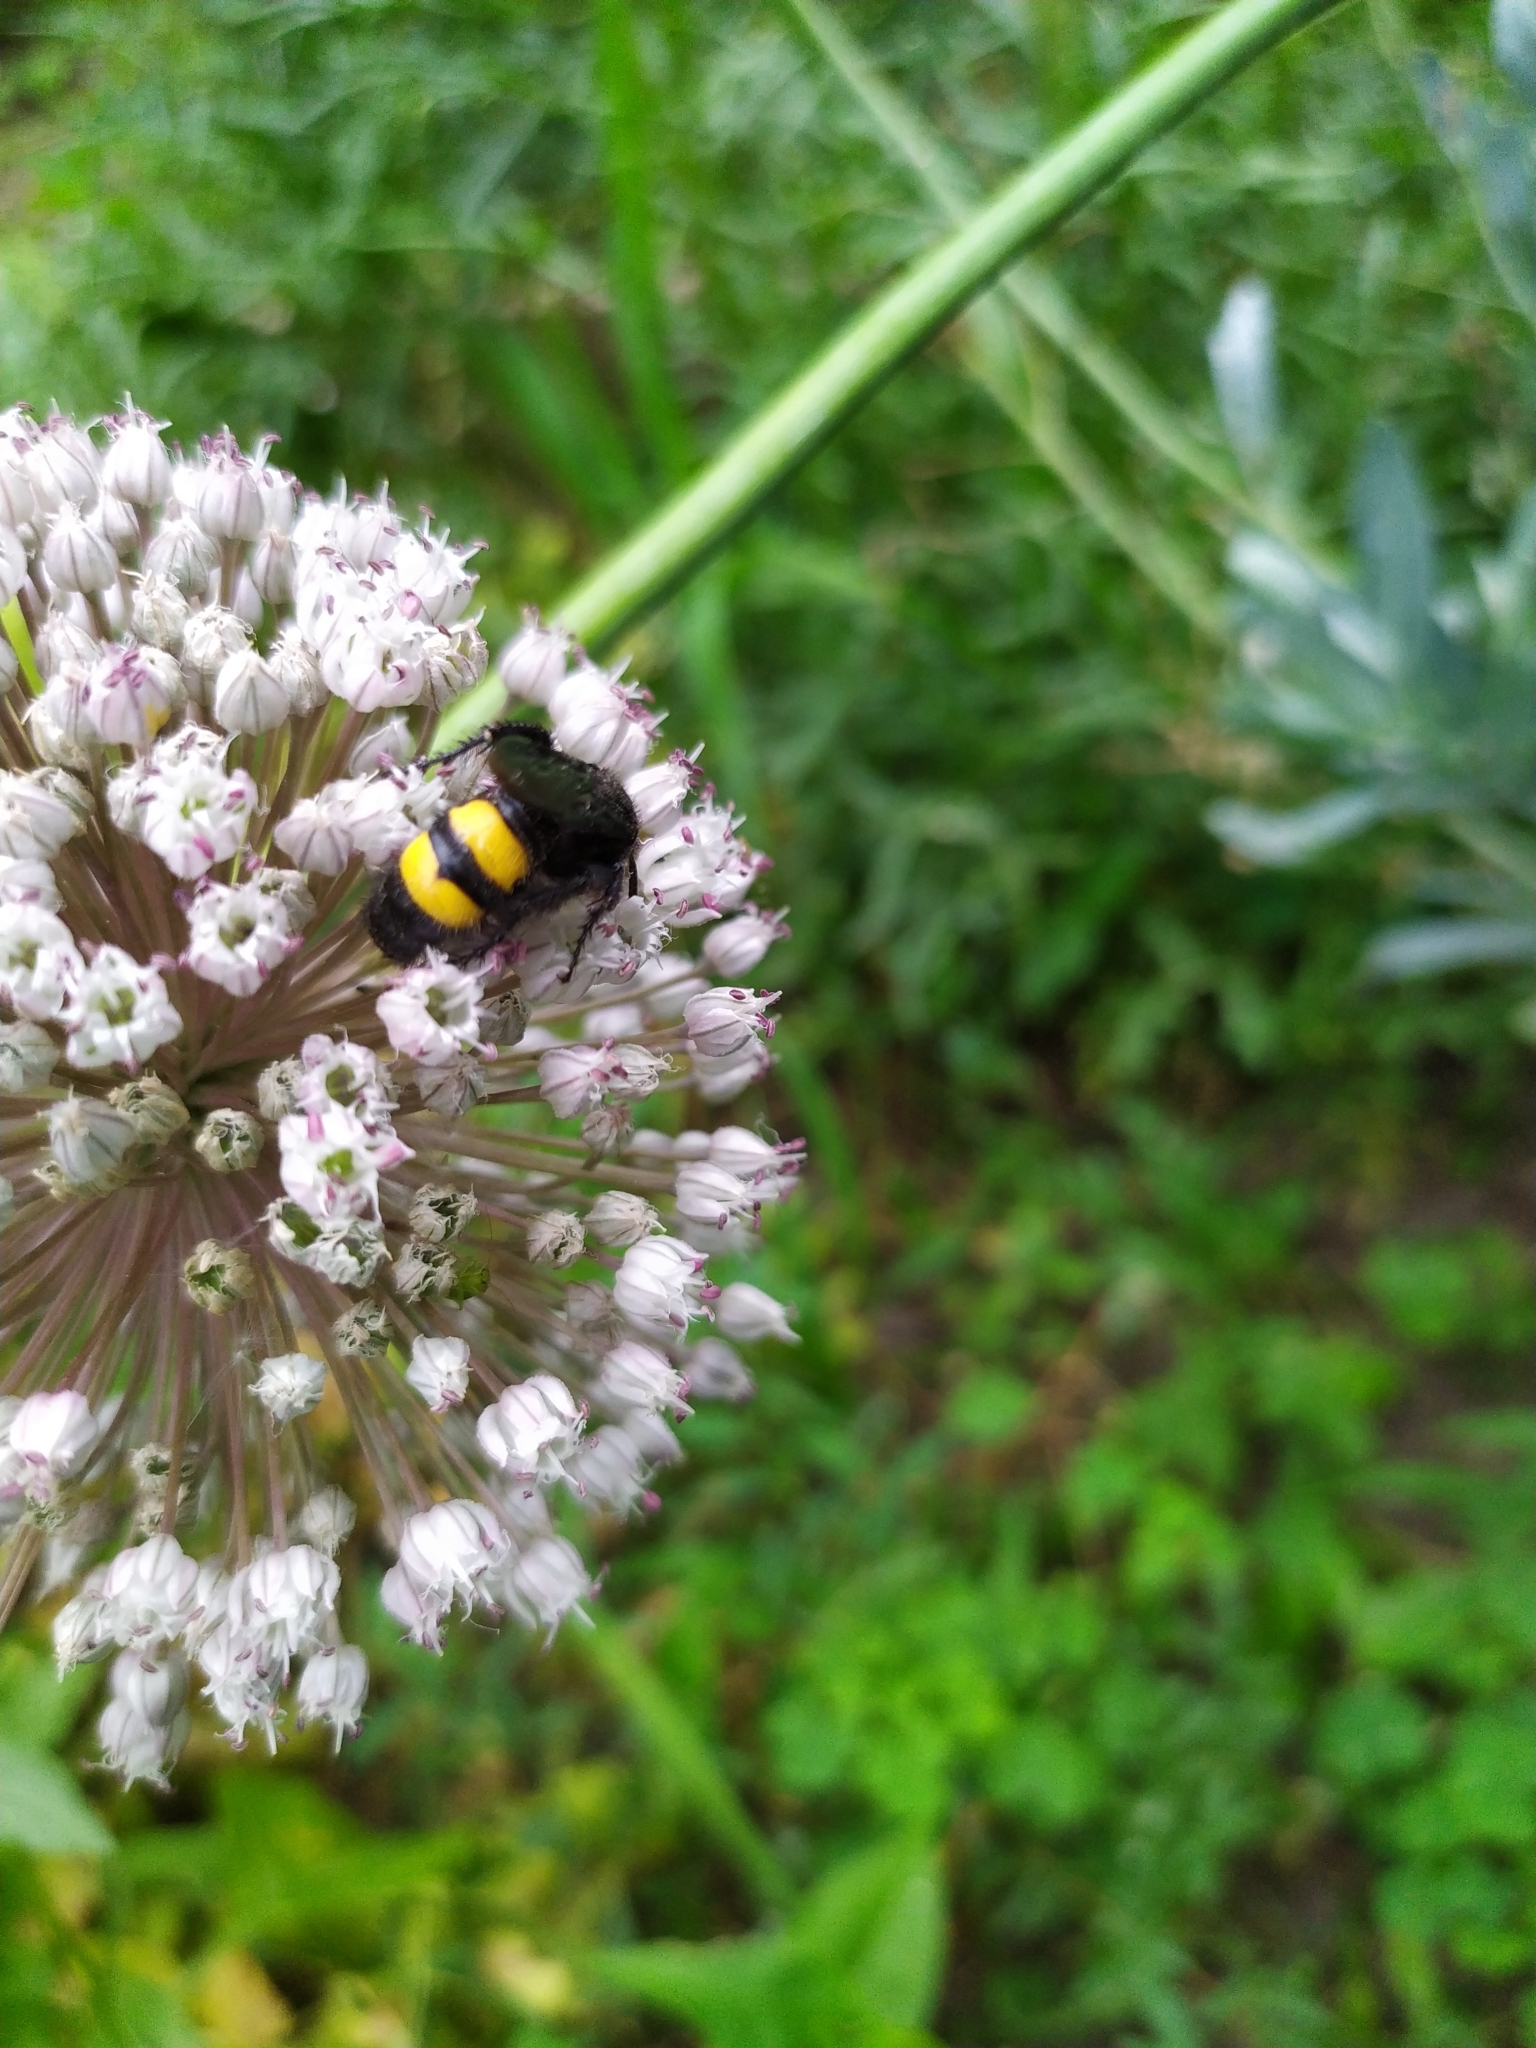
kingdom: Animalia
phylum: Arthropoda
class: Insecta
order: Hymenoptera
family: Scoliidae
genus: Scolia
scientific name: Scolia hirta
